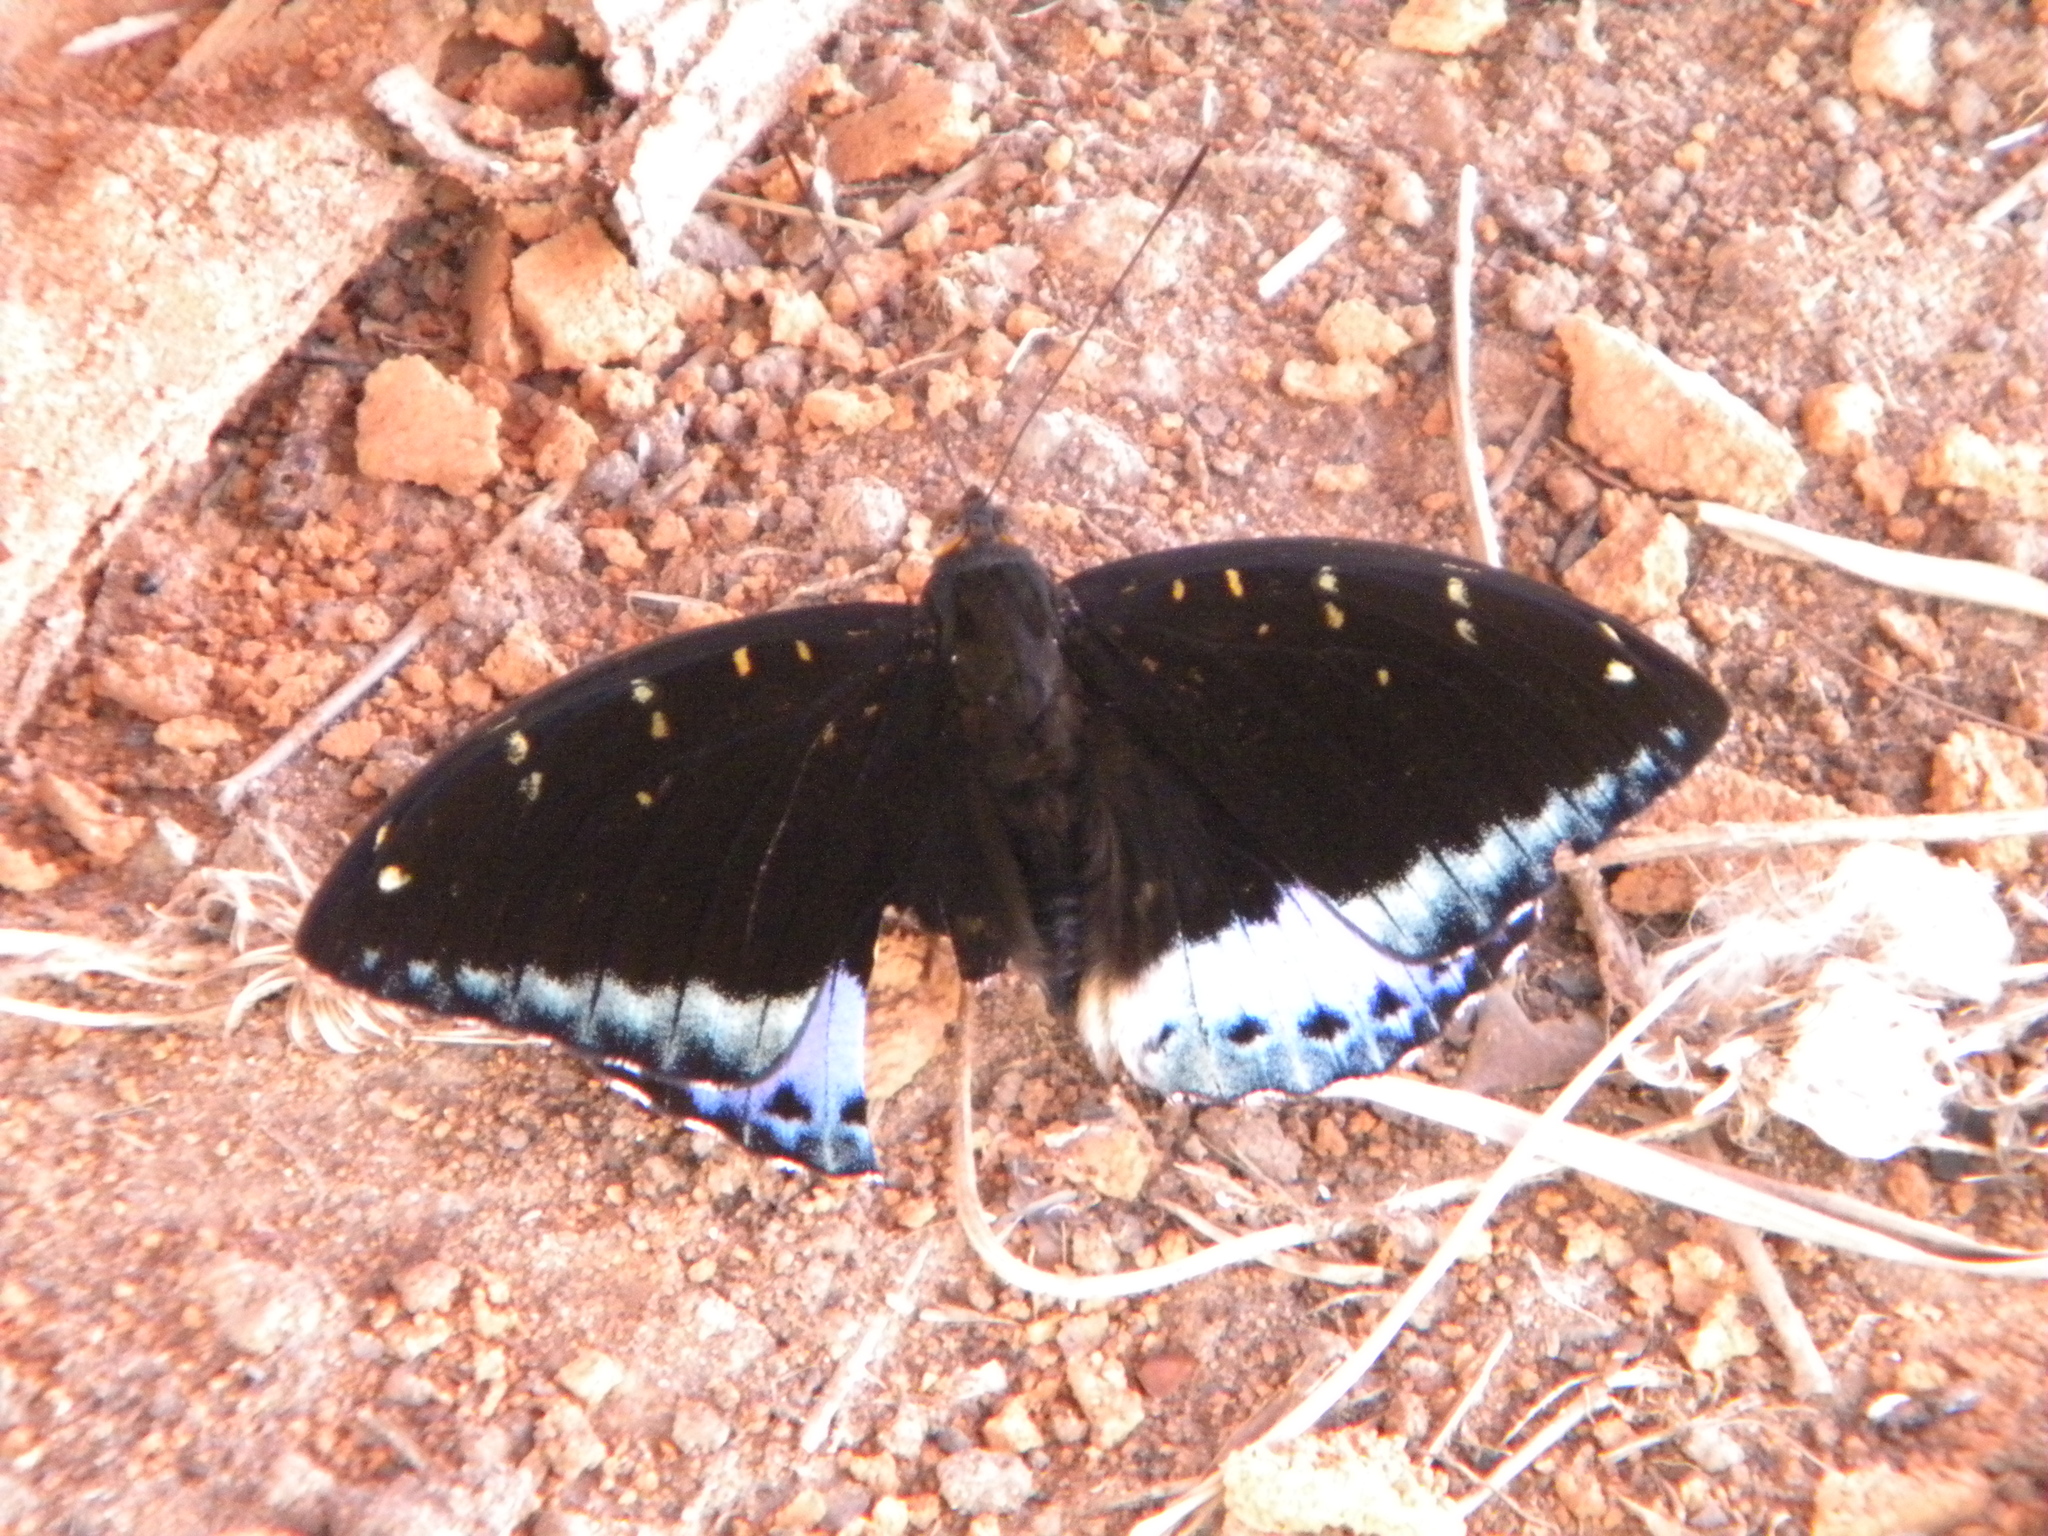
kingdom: Animalia
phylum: Arthropoda
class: Insecta
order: Lepidoptera
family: Nymphalidae
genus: Lexias
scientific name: Lexias pardalis
